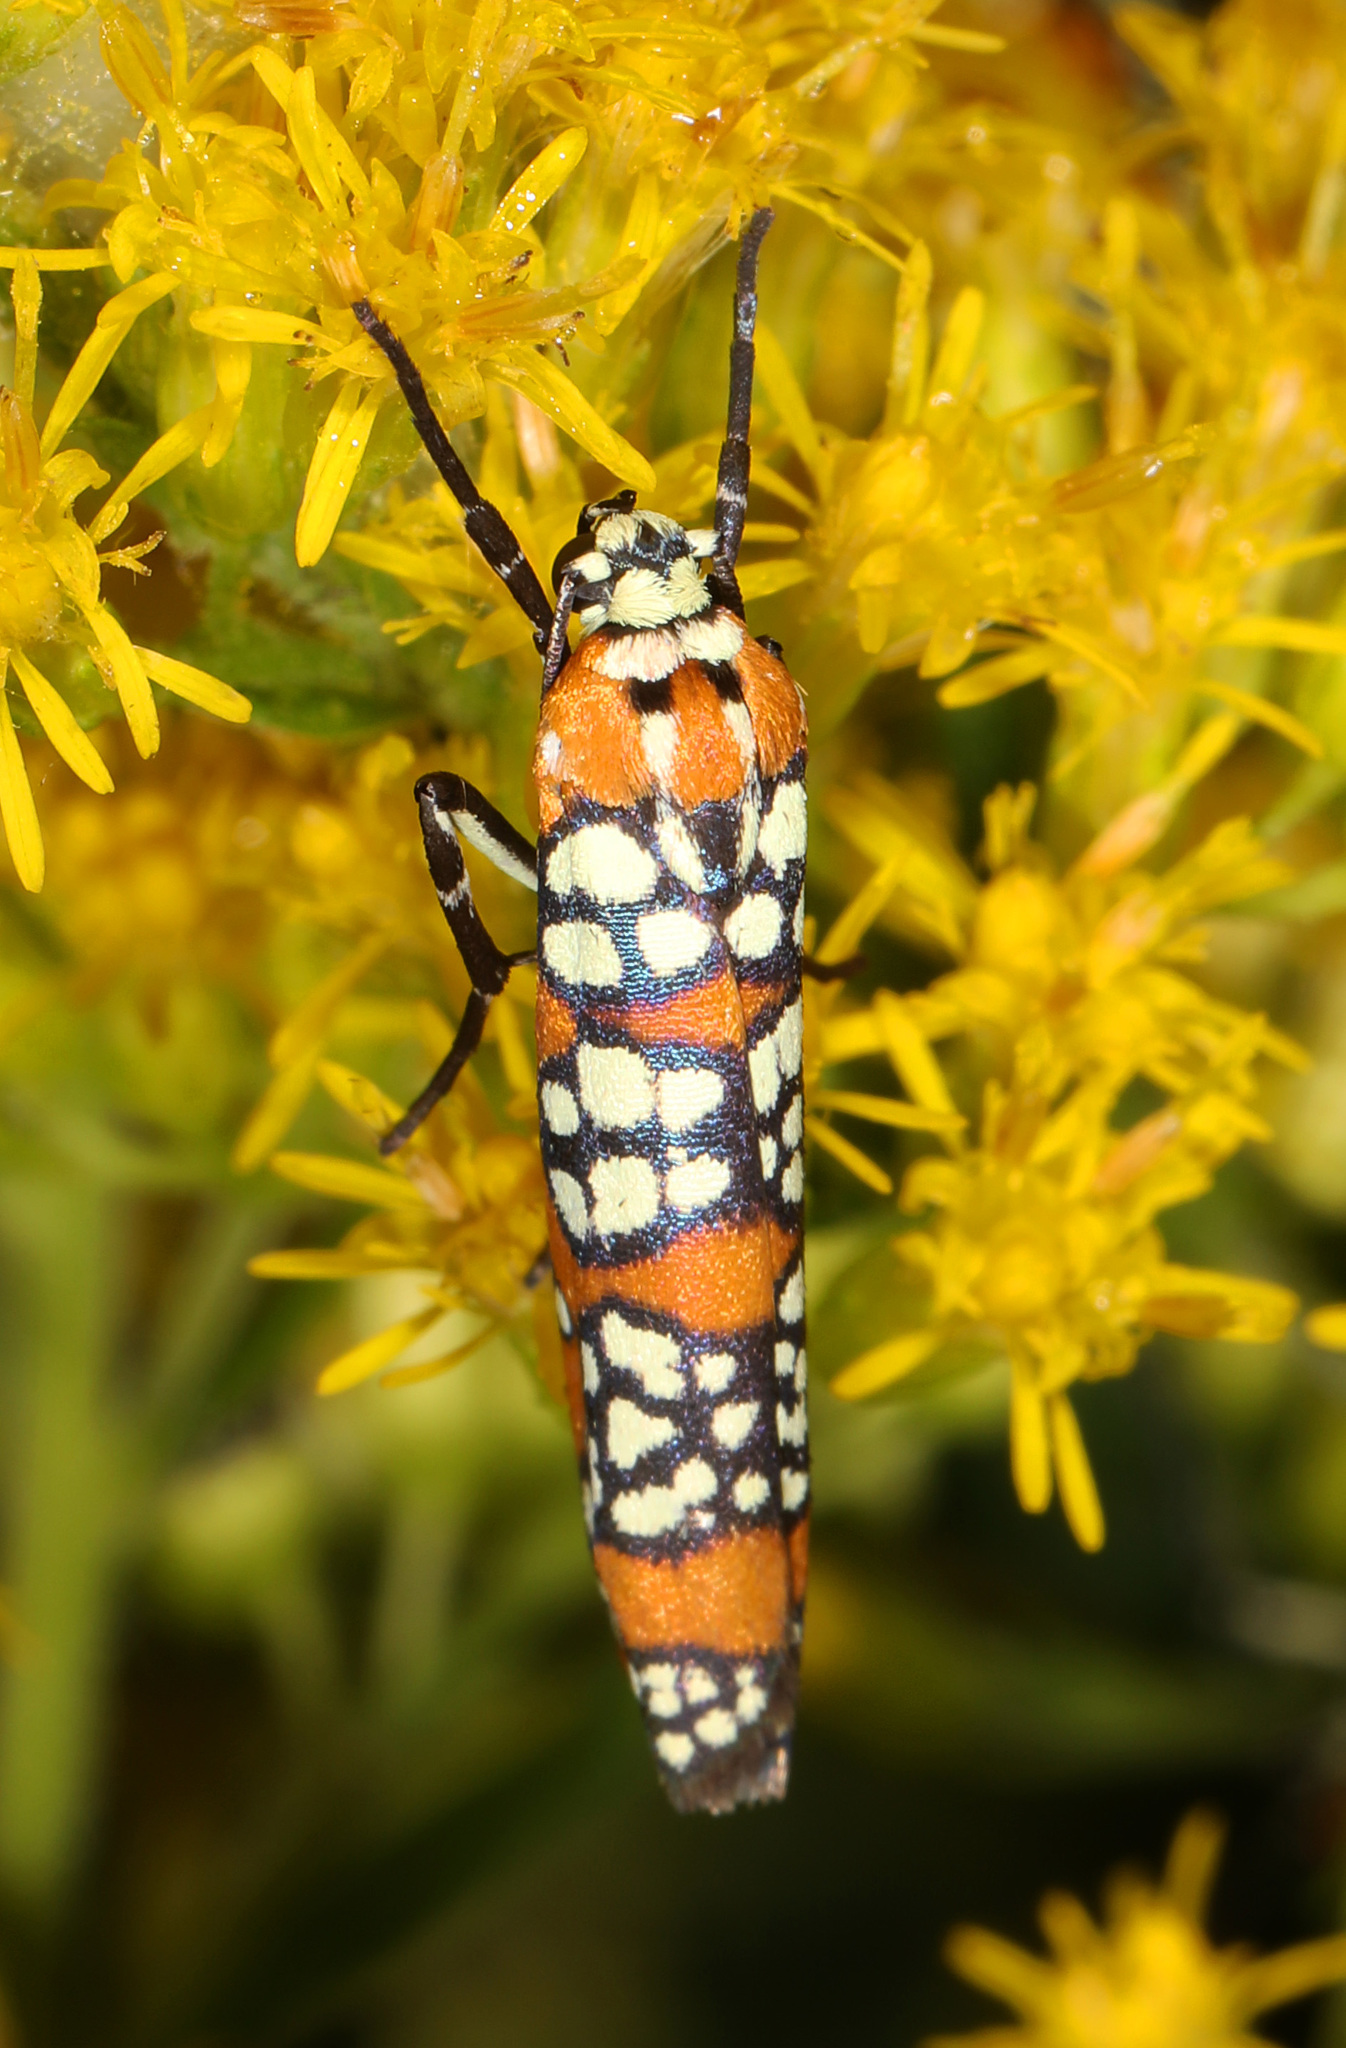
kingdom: Animalia
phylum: Arthropoda
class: Insecta
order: Lepidoptera
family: Attevidae
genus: Atteva
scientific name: Atteva punctella
